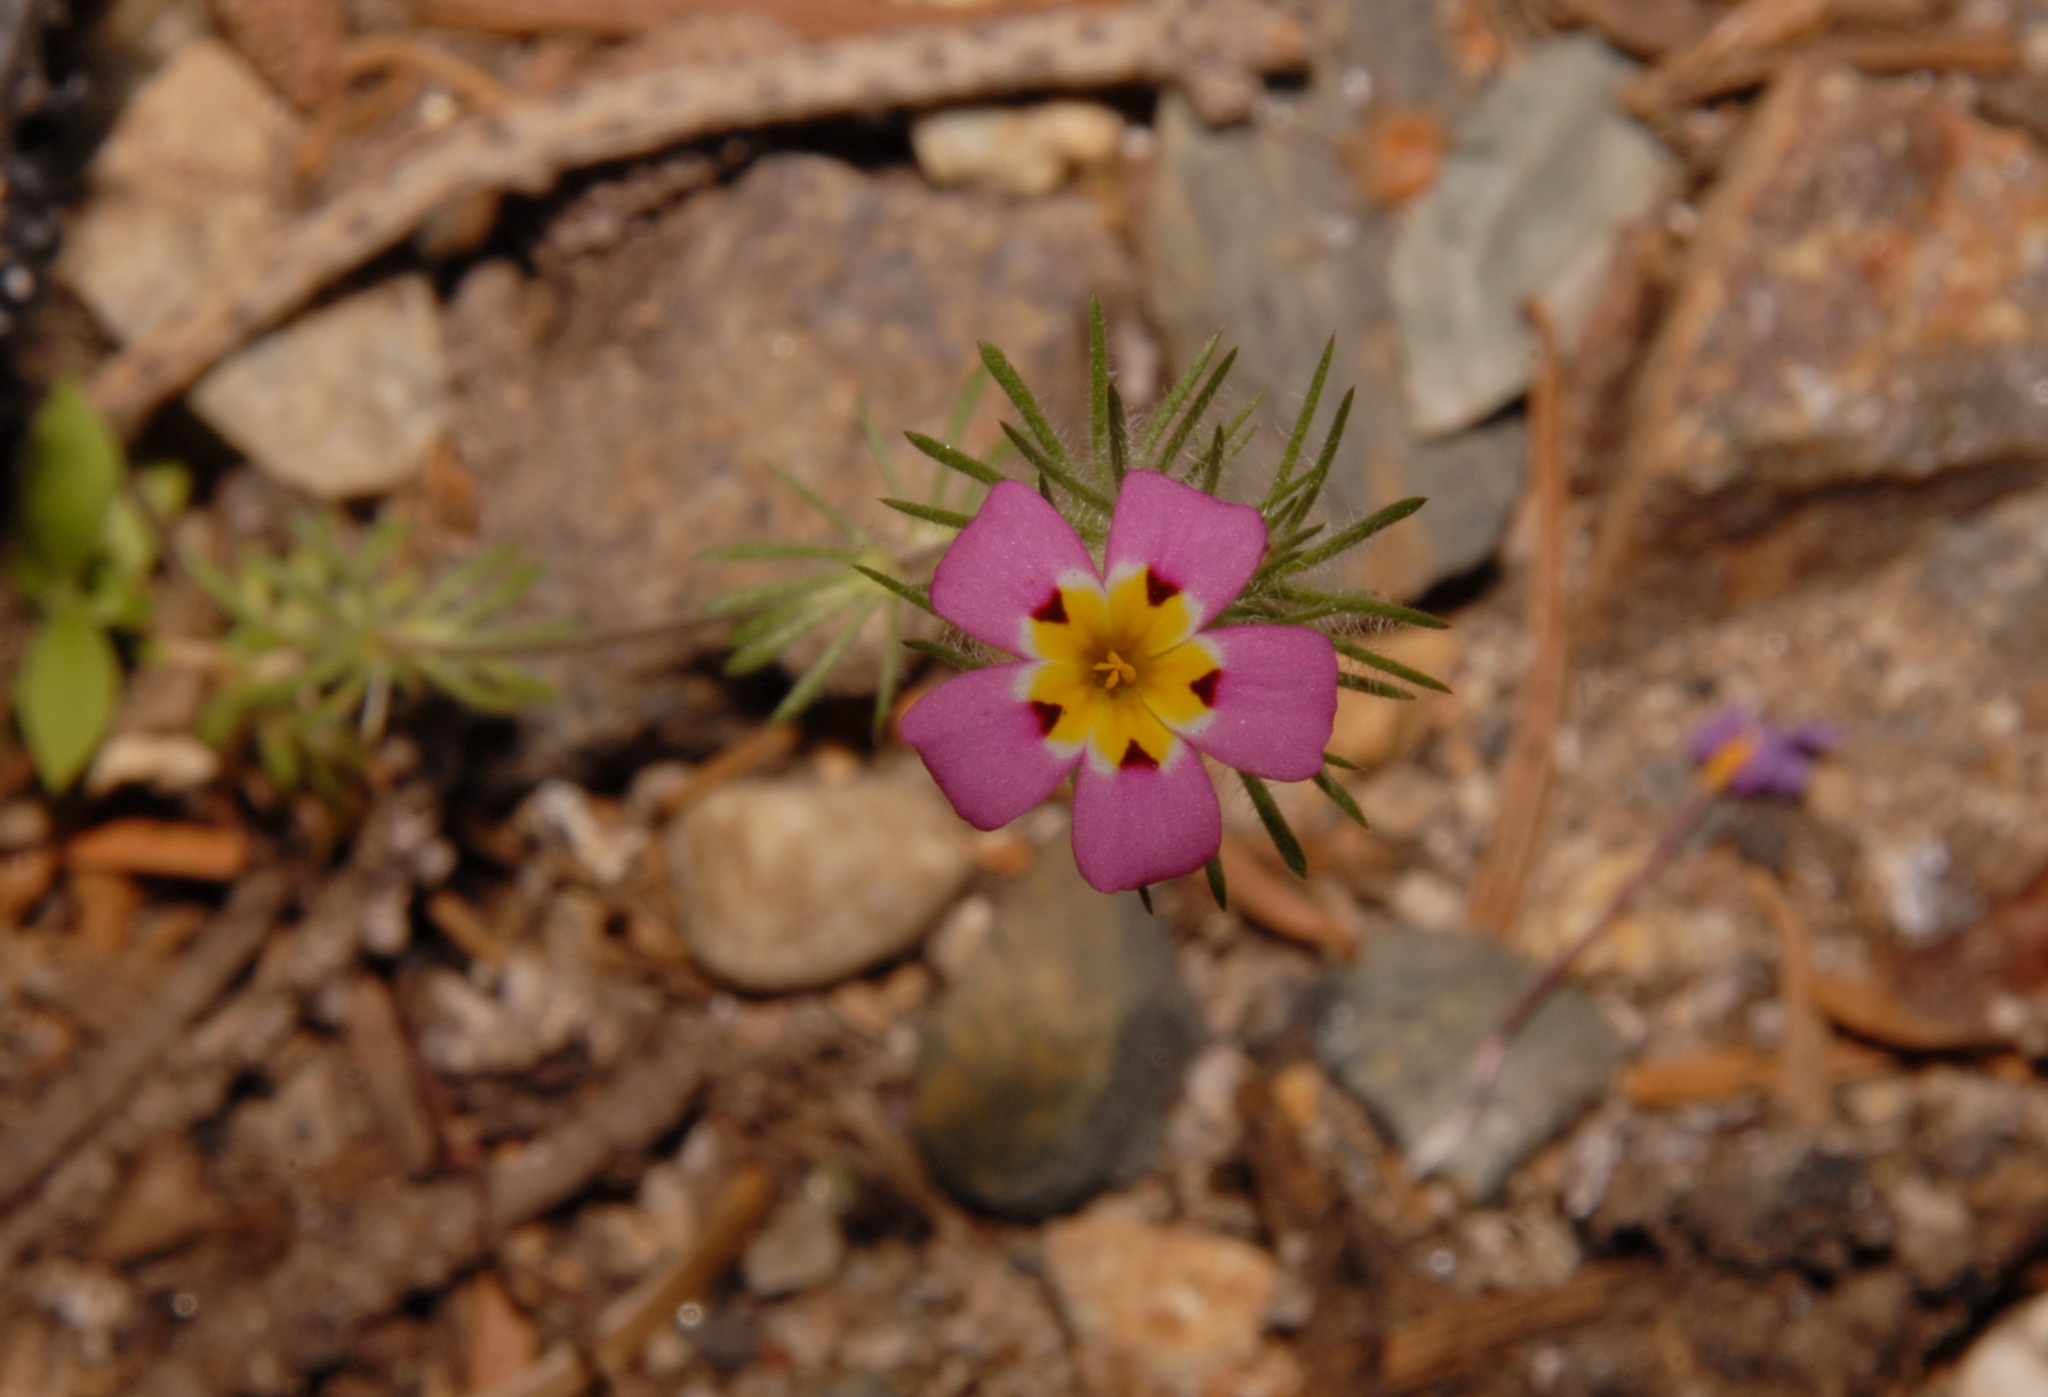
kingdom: Plantae
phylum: Tracheophyta
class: Magnoliopsida
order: Ericales
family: Polemoniaceae
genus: Leptosiphon
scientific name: Leptosiphon ciliatus
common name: Whiskerbrush
